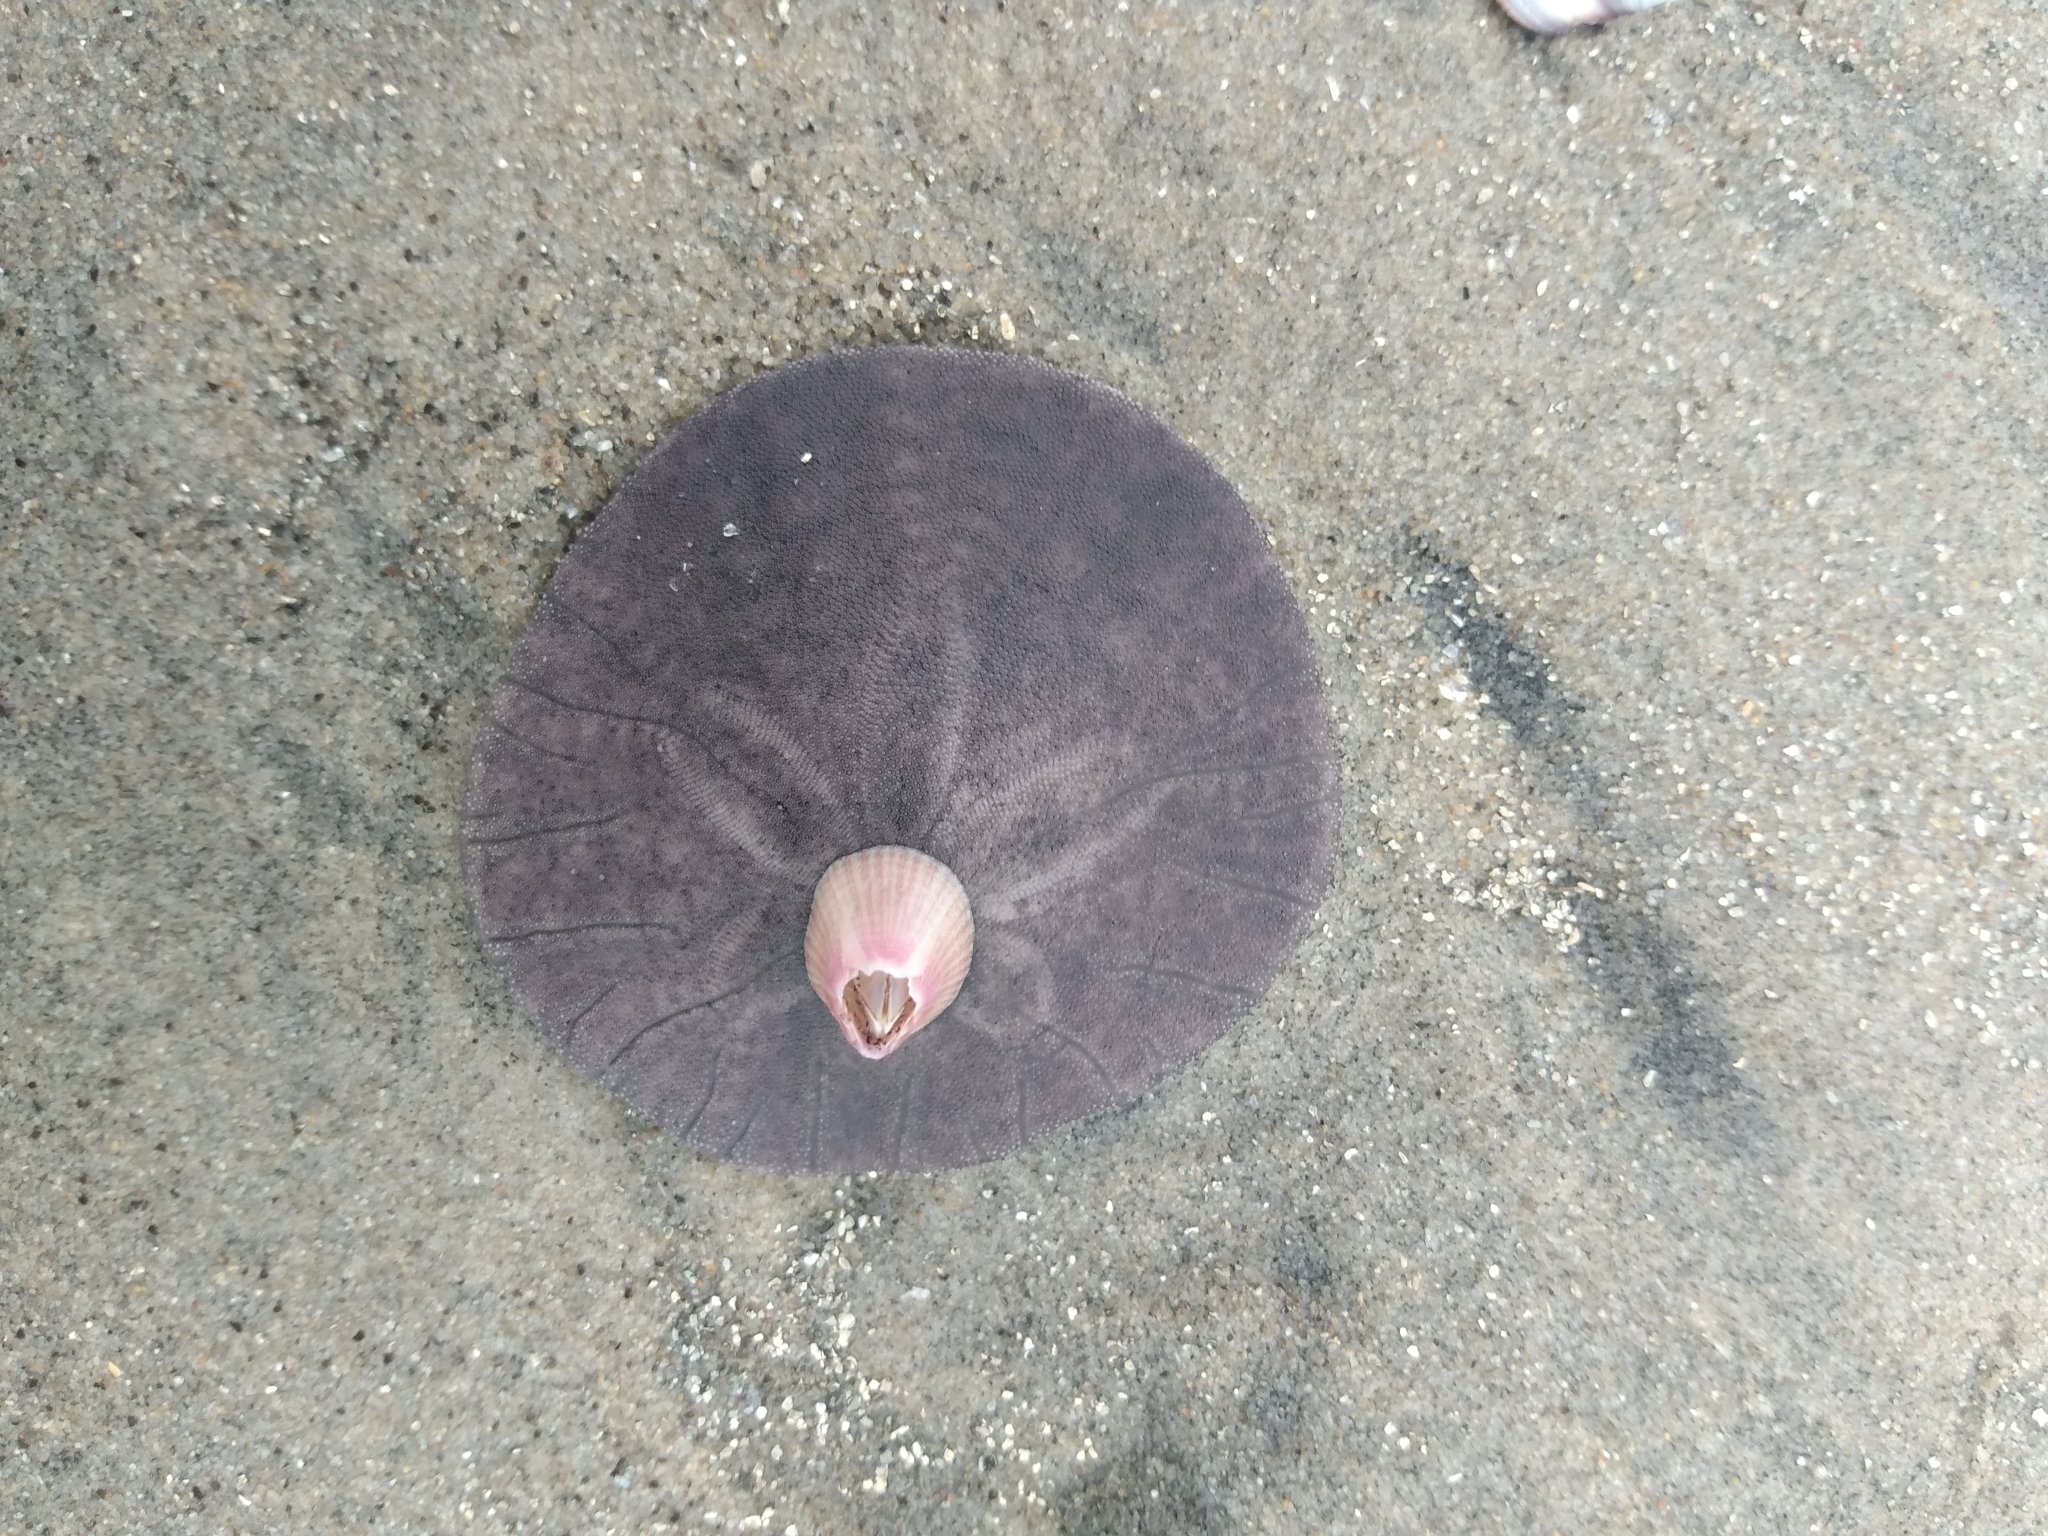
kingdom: Animalia
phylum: Echinodermata
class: Echinoidea
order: Echinolampadacea
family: Dendrasteridae
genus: Dendraster
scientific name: Dendraster excentricus
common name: Eccentric sand dollar sea urchin
